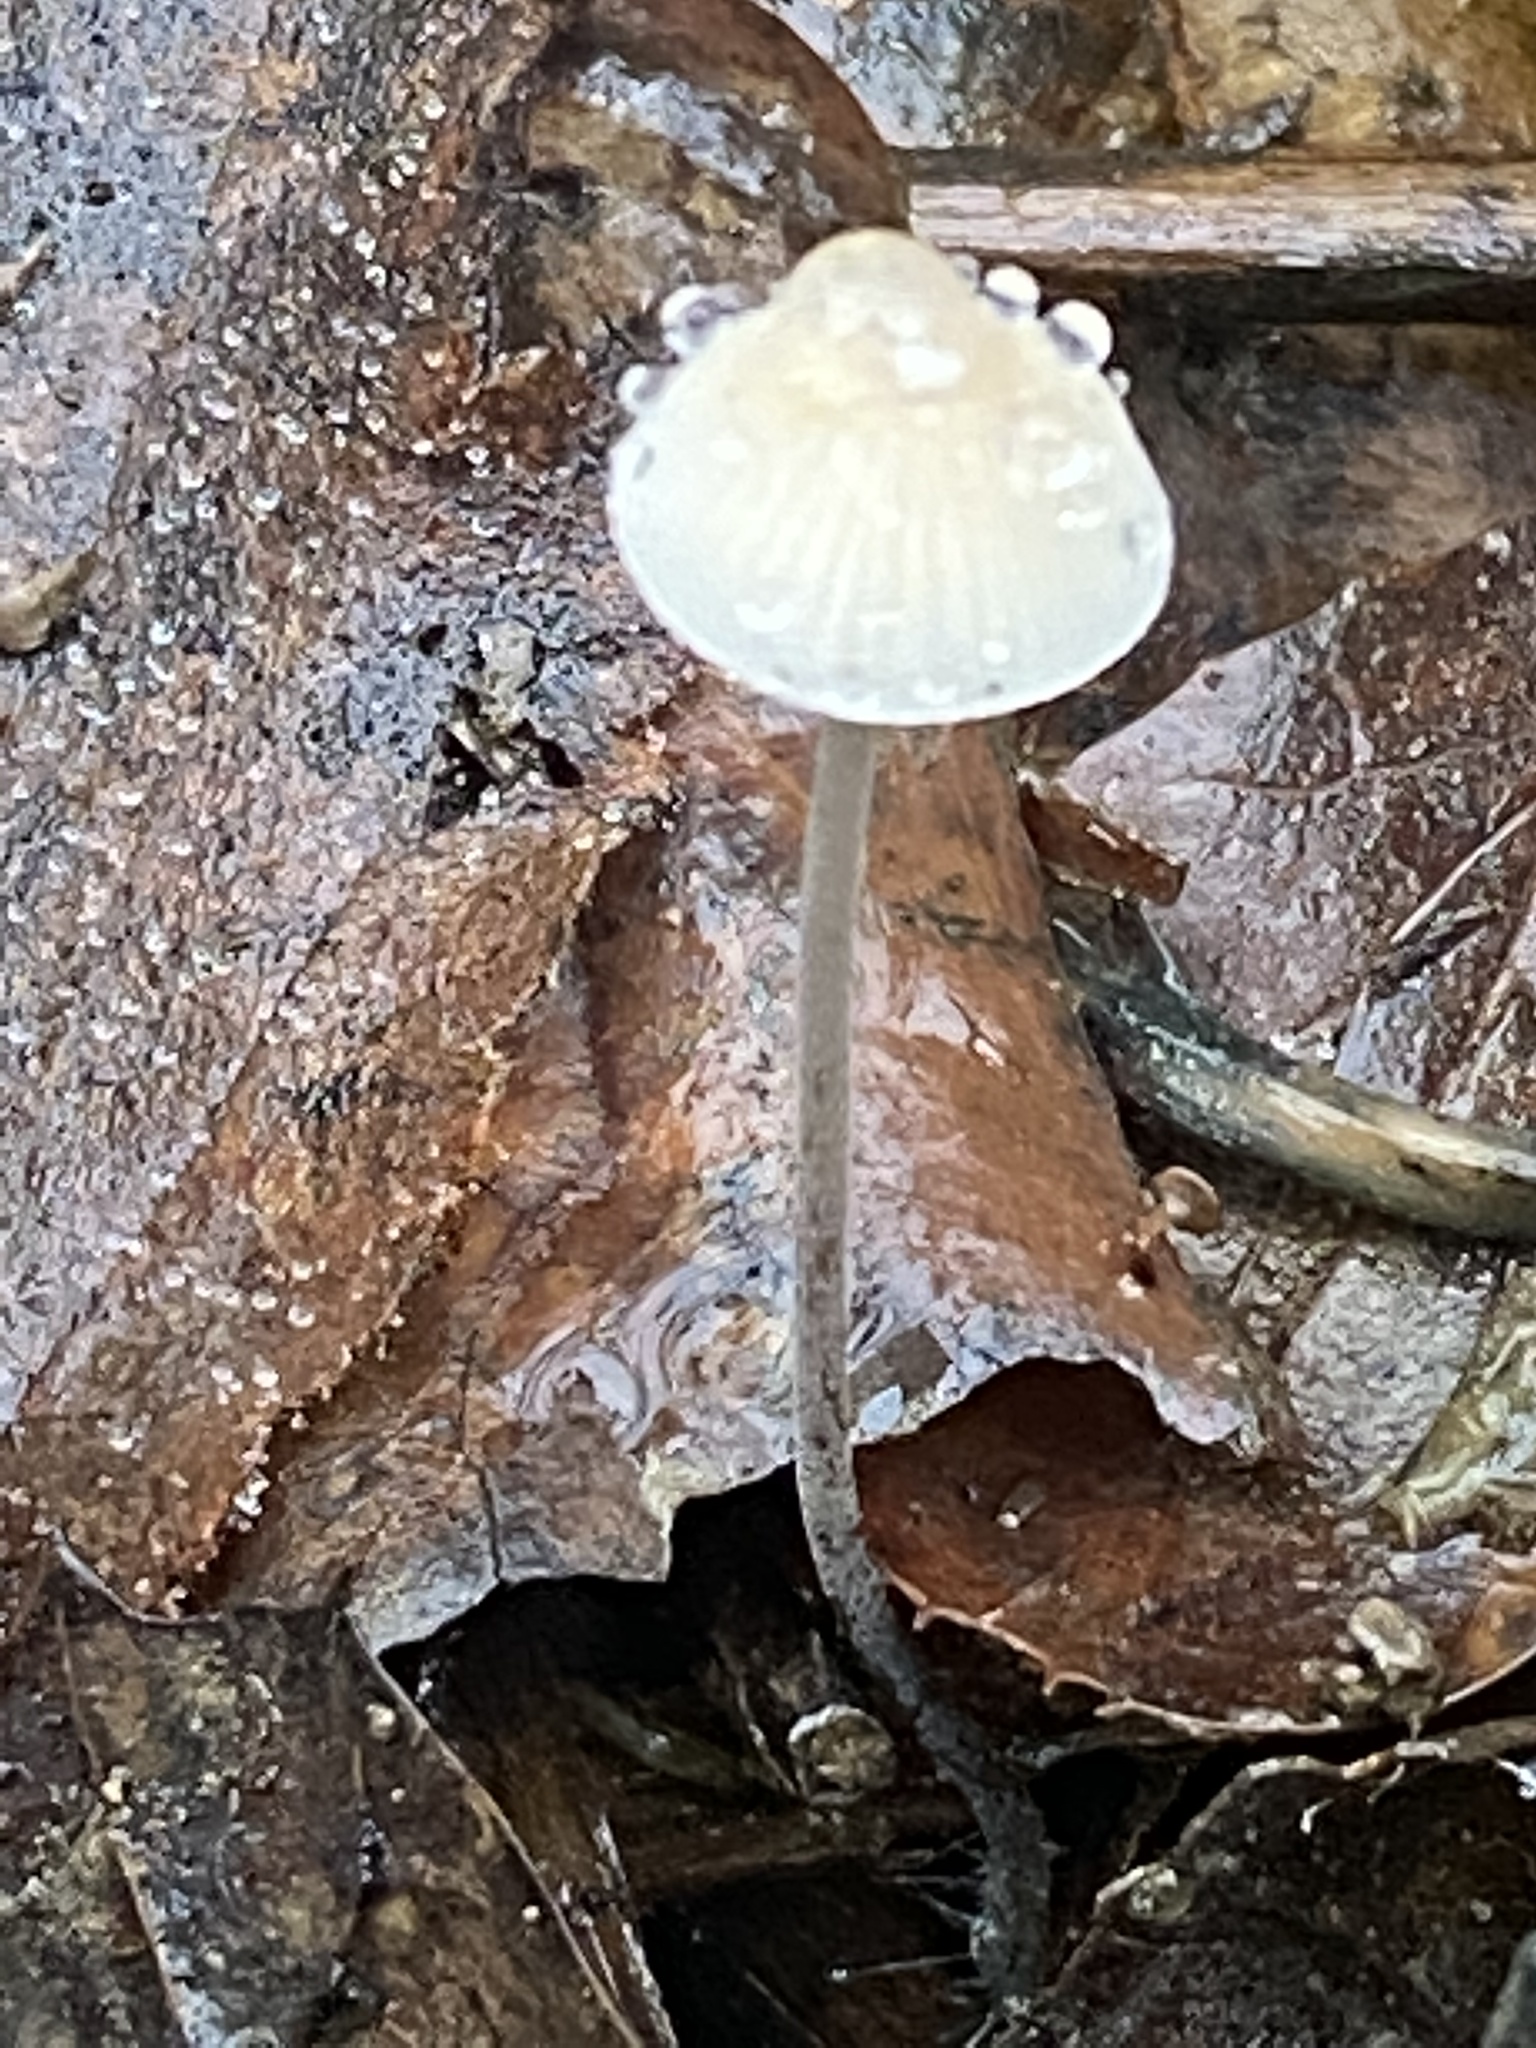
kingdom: Fungi
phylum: Basidiomycota
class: Agaricomycetes
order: Agaricales
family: Mycenaceae
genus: Mycena
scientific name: Mycena filopes
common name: Iodine bonnet
